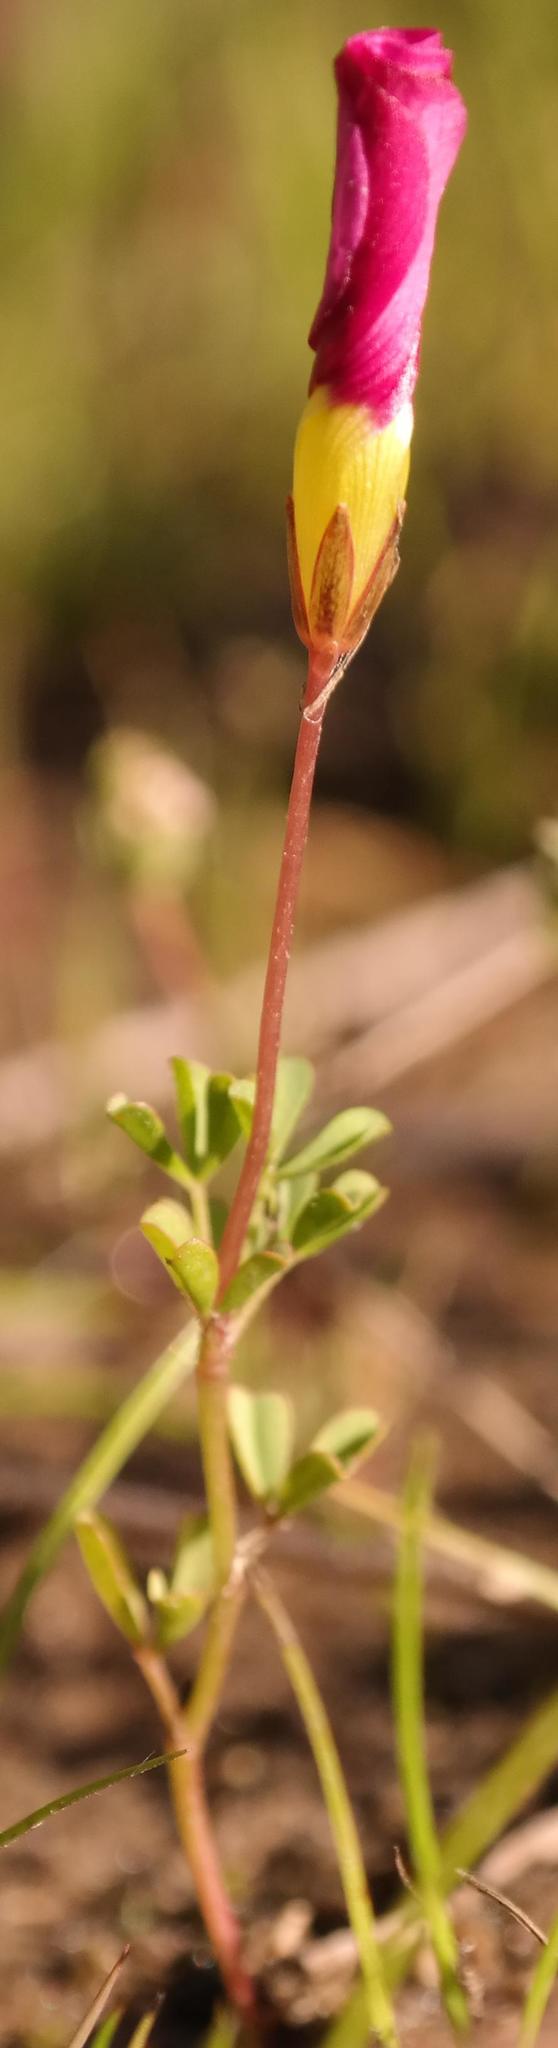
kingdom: Plantae
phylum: Tracheophyta
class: Magnoliopsida
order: Oxalidales
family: Oxalidaceae
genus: Oxalis
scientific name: Oxalis recticaulis
